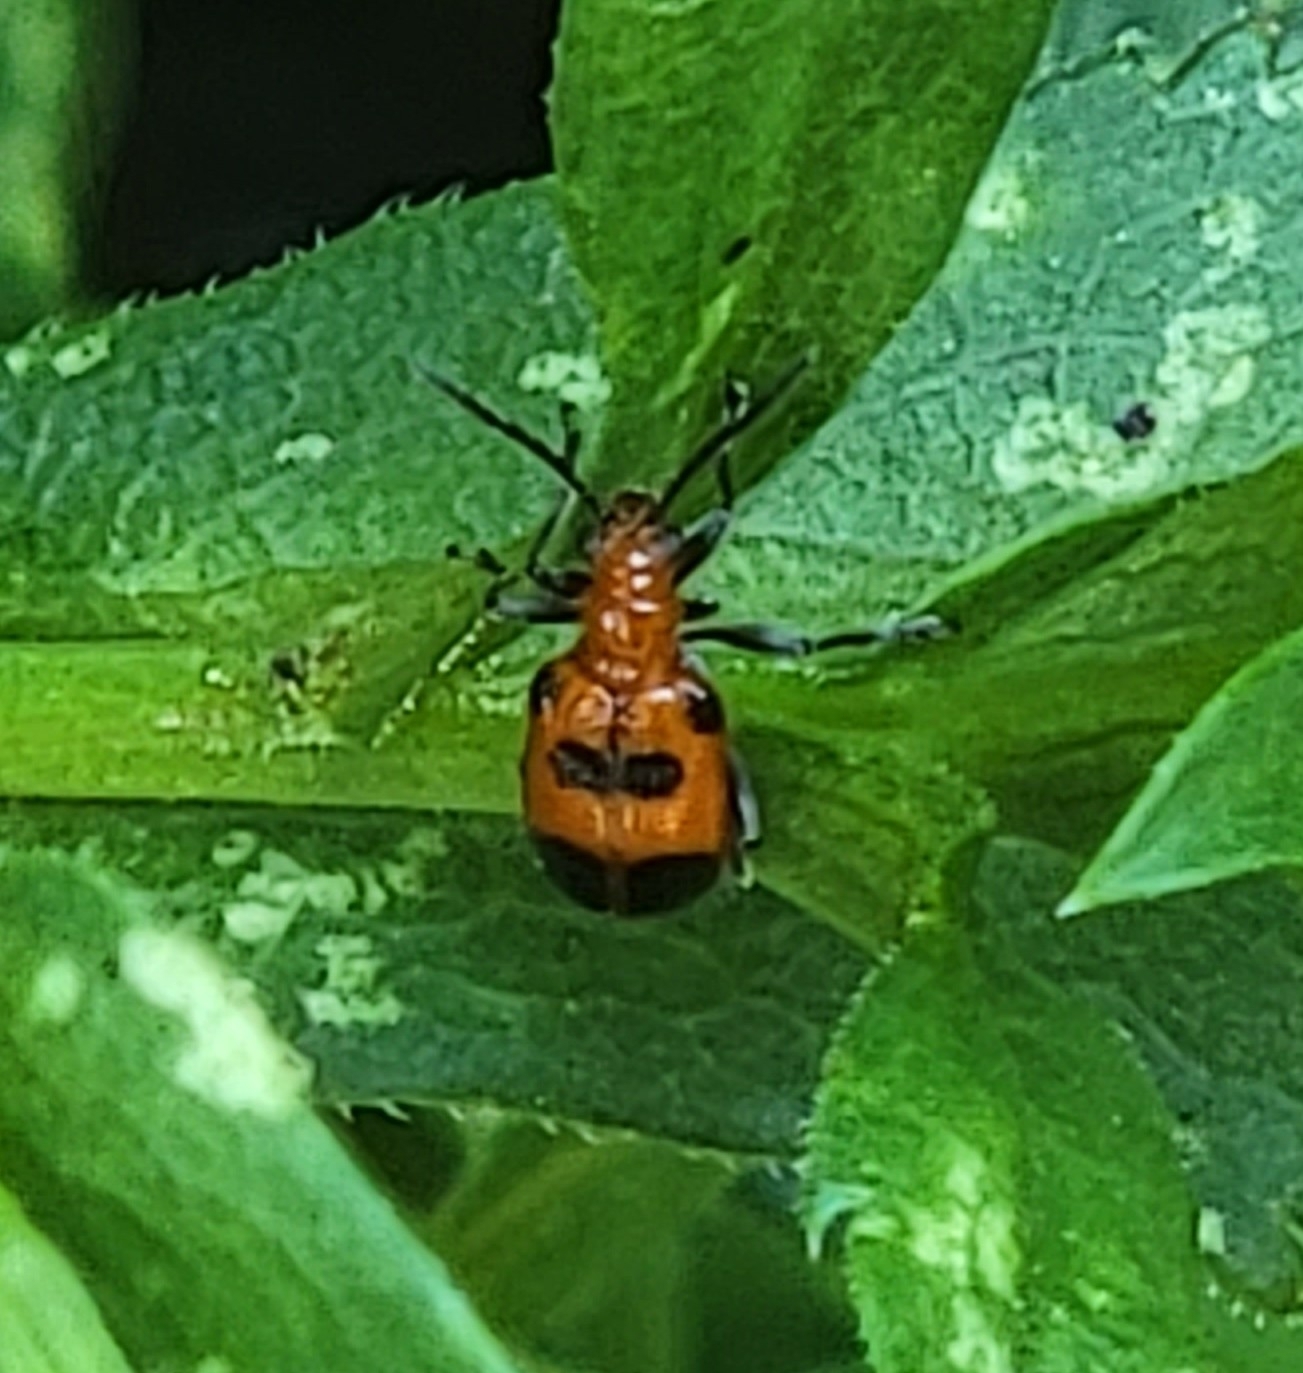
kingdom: Animalia
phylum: Arthropoda
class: Insecta
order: Coleoptera
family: Chrysomelidae
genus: Neolema
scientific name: Neolema sexpunctata
